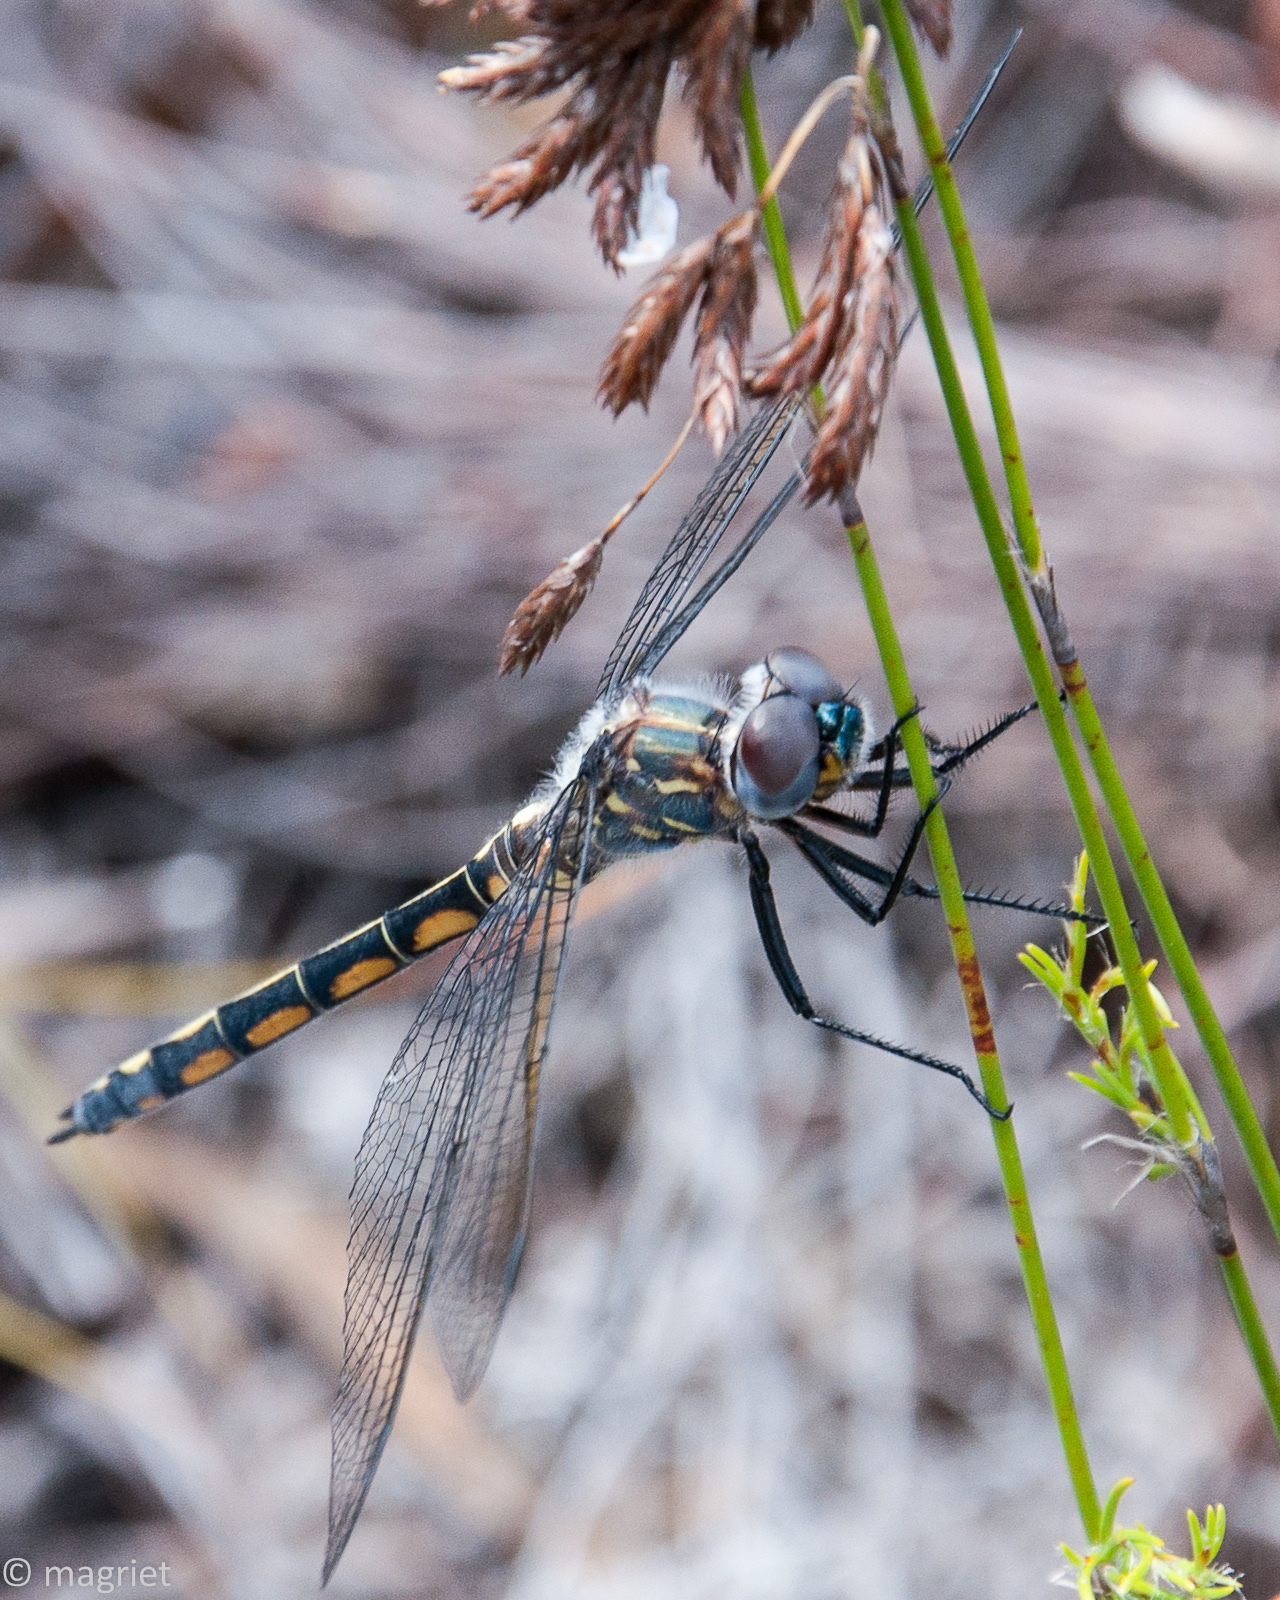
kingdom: Animalia
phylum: Arthropoda
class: Insecta
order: Odonata
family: Libellulidae
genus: Zygonyx
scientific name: Zygonyx natalensis
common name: Blue cascader
